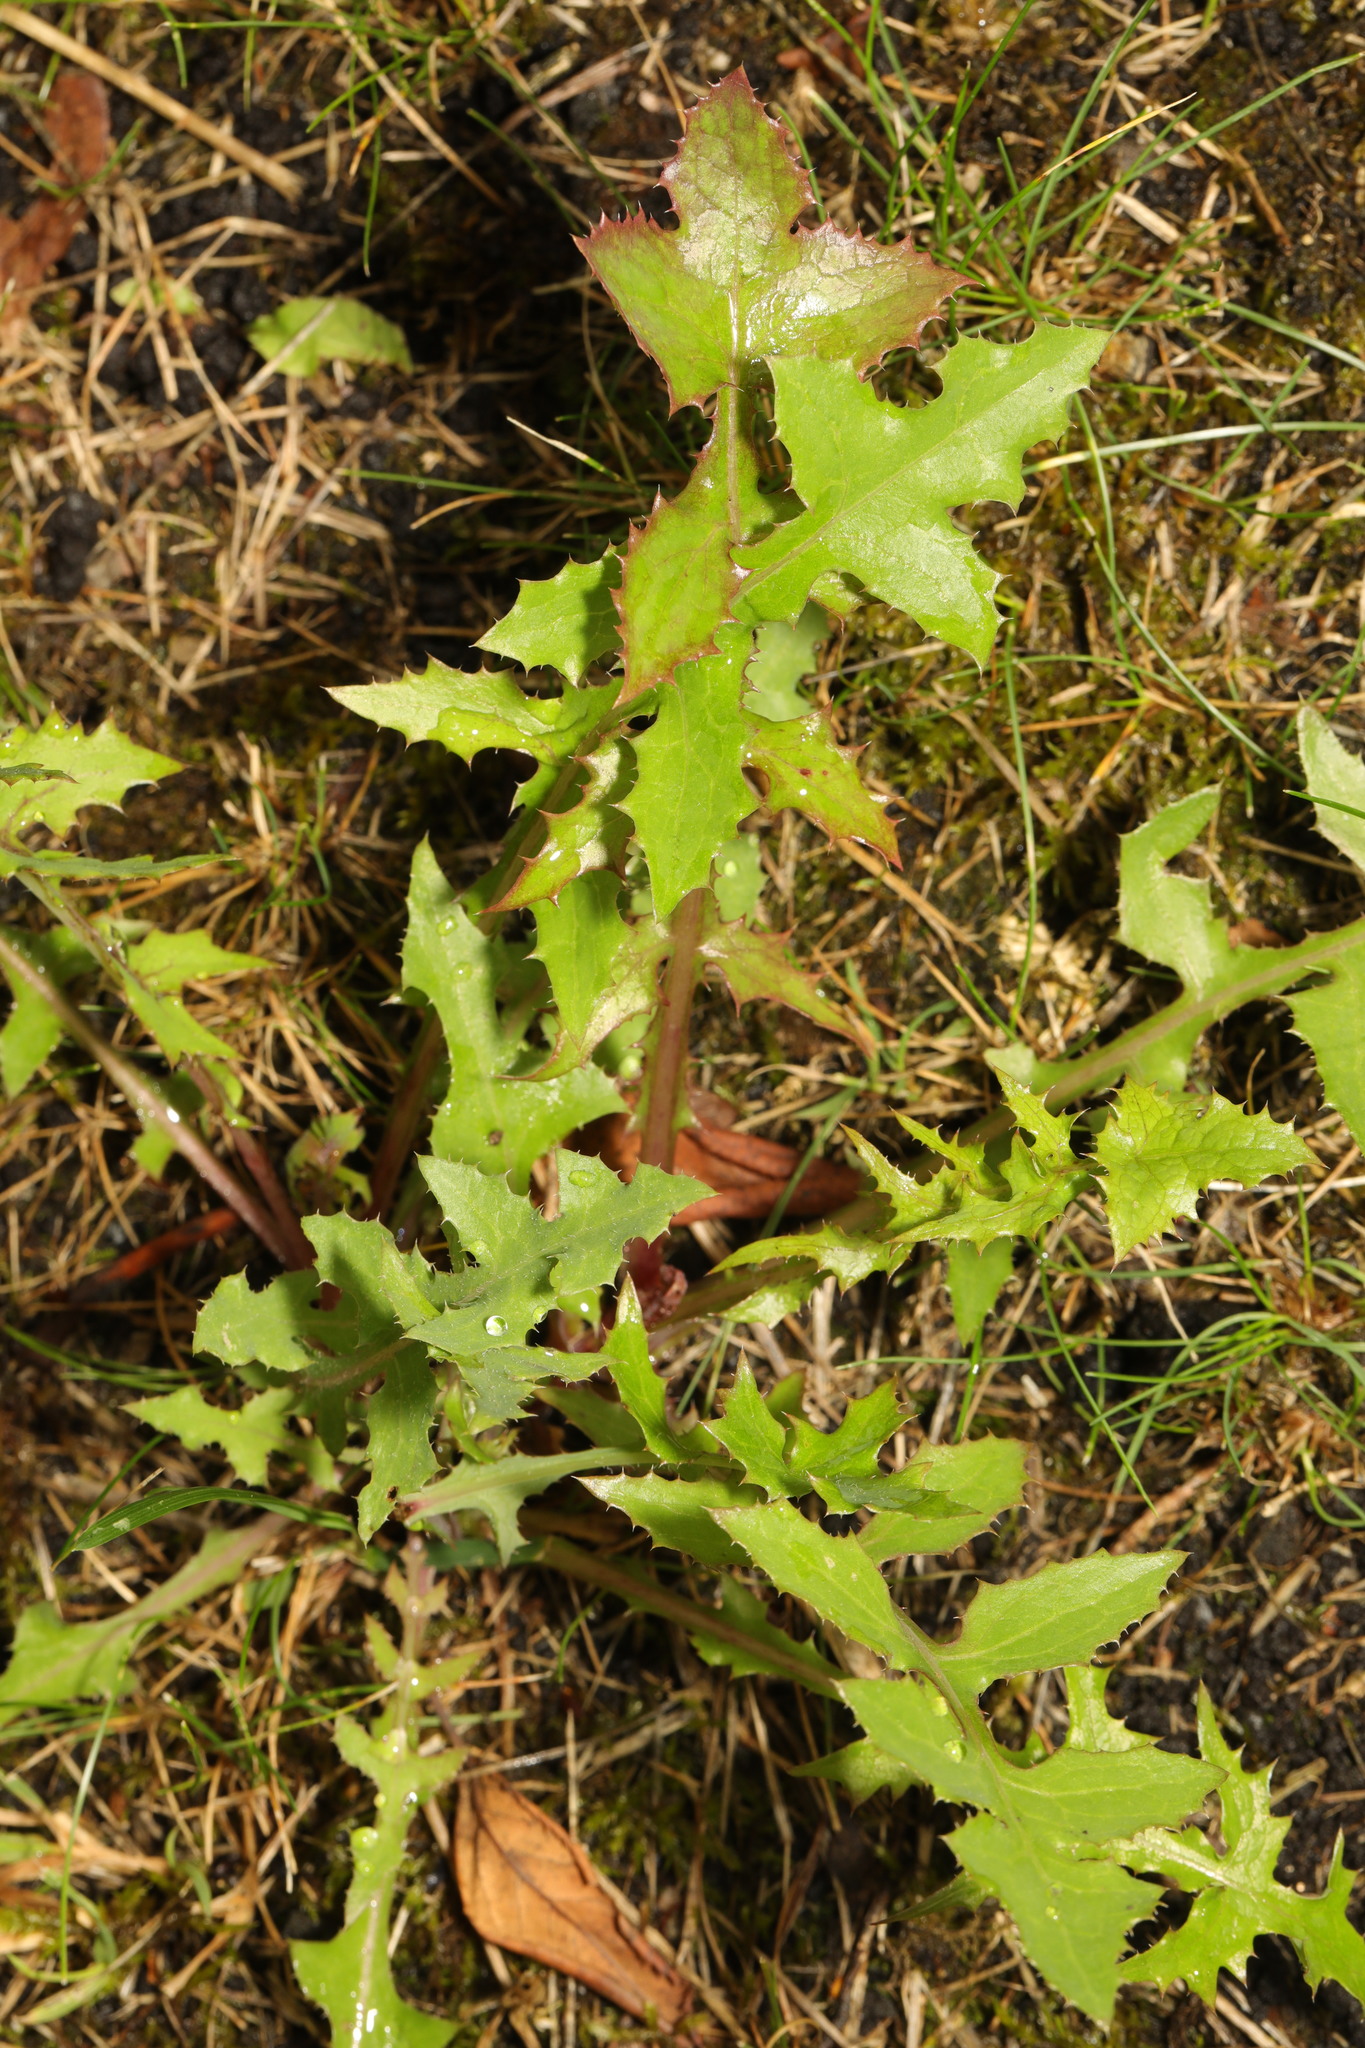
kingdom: Plantae
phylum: Tracheophyta
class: Magnoliopsida
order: Asterales
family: Asteraceae
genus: Sonchus
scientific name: Sonchus oleraceus
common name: Common sowthistle
